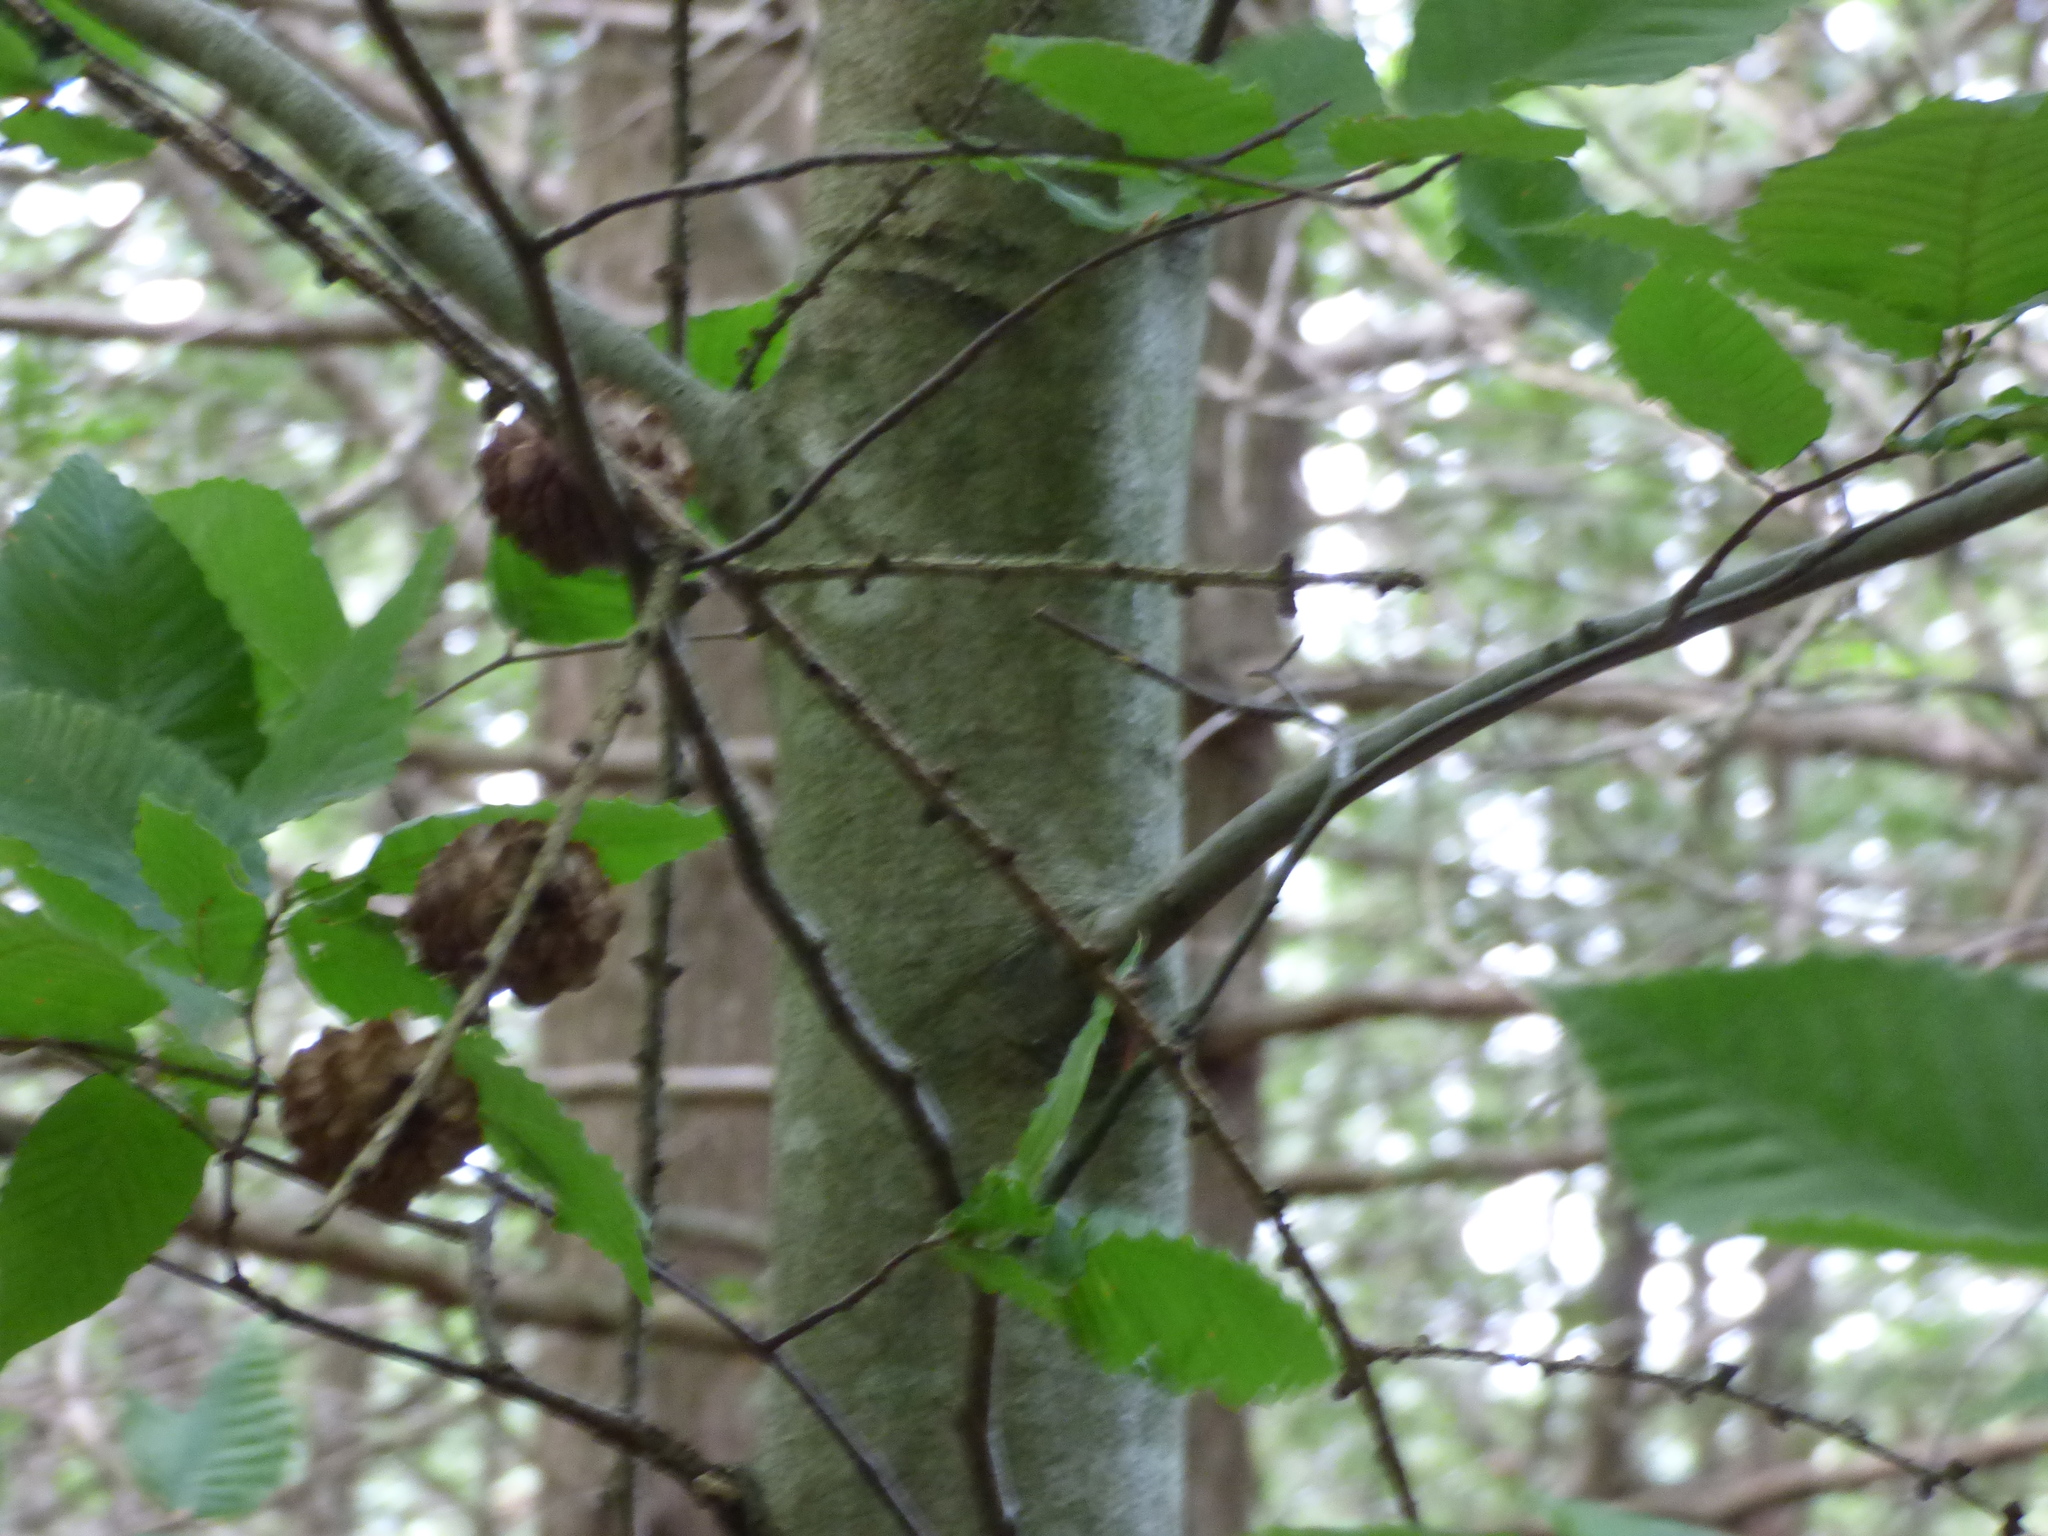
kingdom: Plantae
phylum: Tracheophyta
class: Magnoliopsida
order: Fagales
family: Fagaceae
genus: Fagus
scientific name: Fagus grandifolia
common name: American beech
